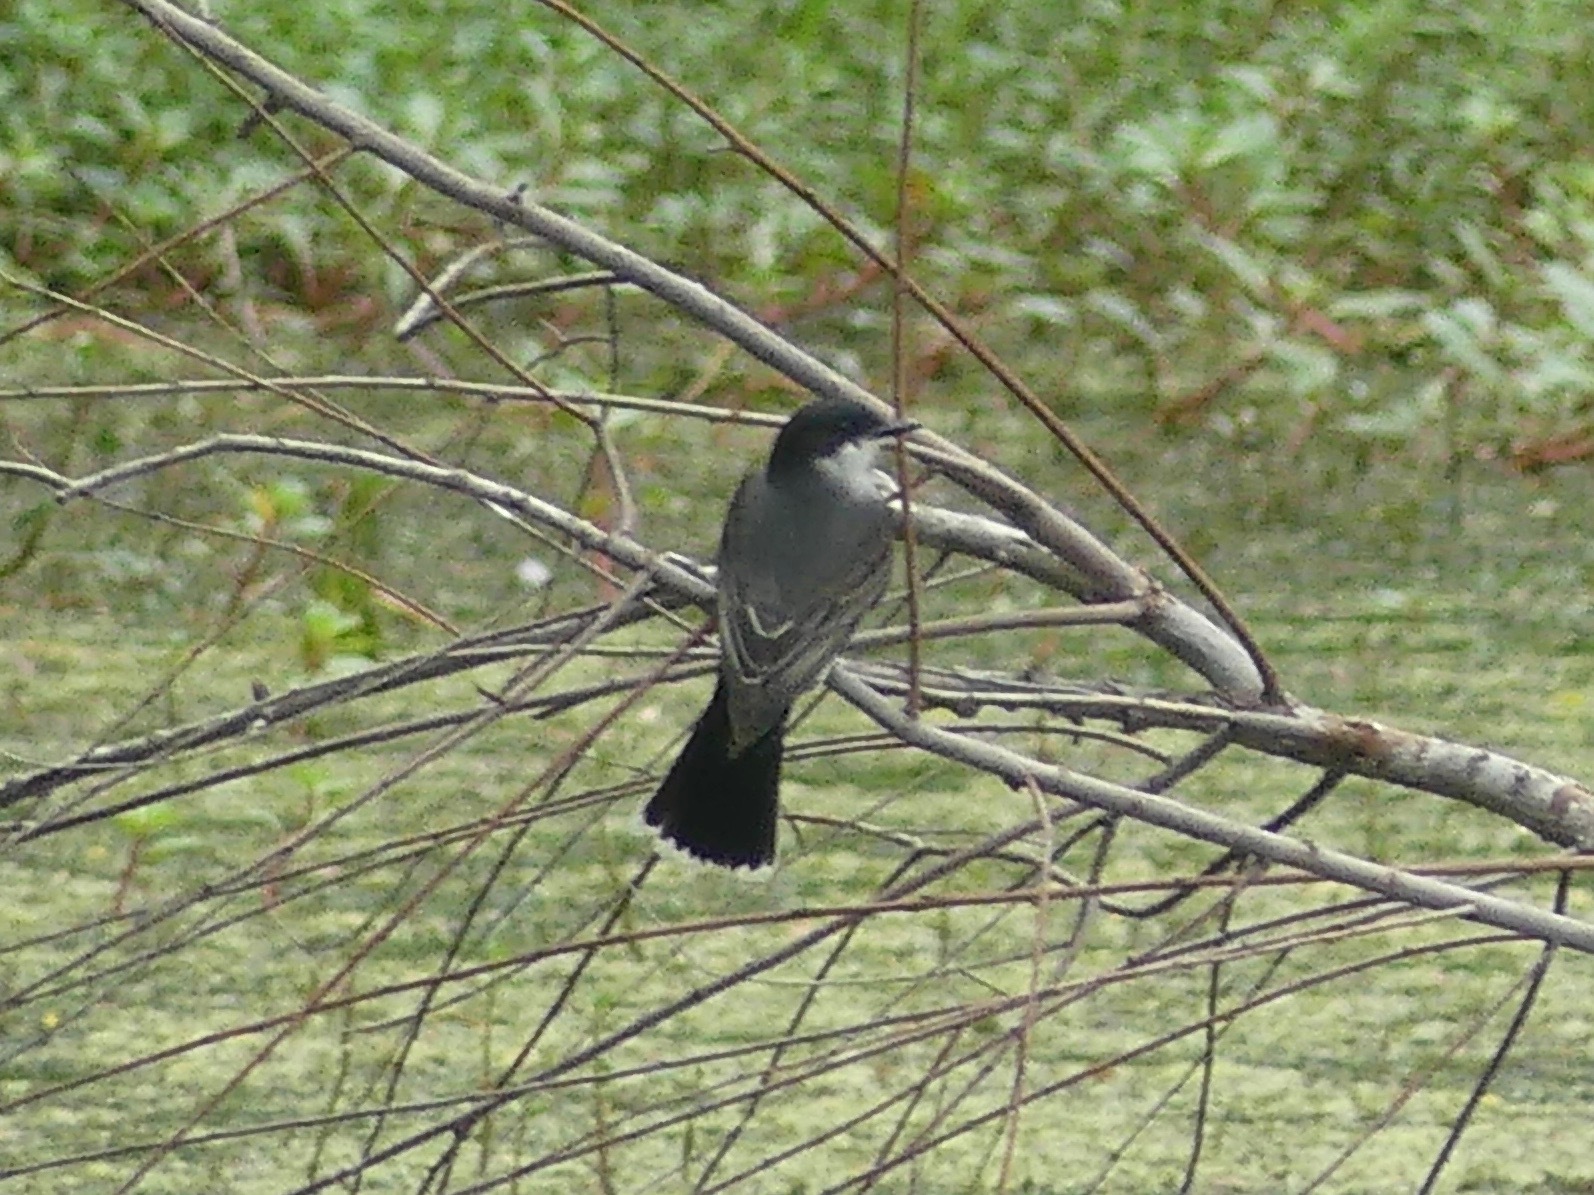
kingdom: Animalia
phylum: Chordata
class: Aves
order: Passeriformes
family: Tyrannidae
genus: Tyrannus
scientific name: Tyrannus tyrannus
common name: Eastern kingbird
